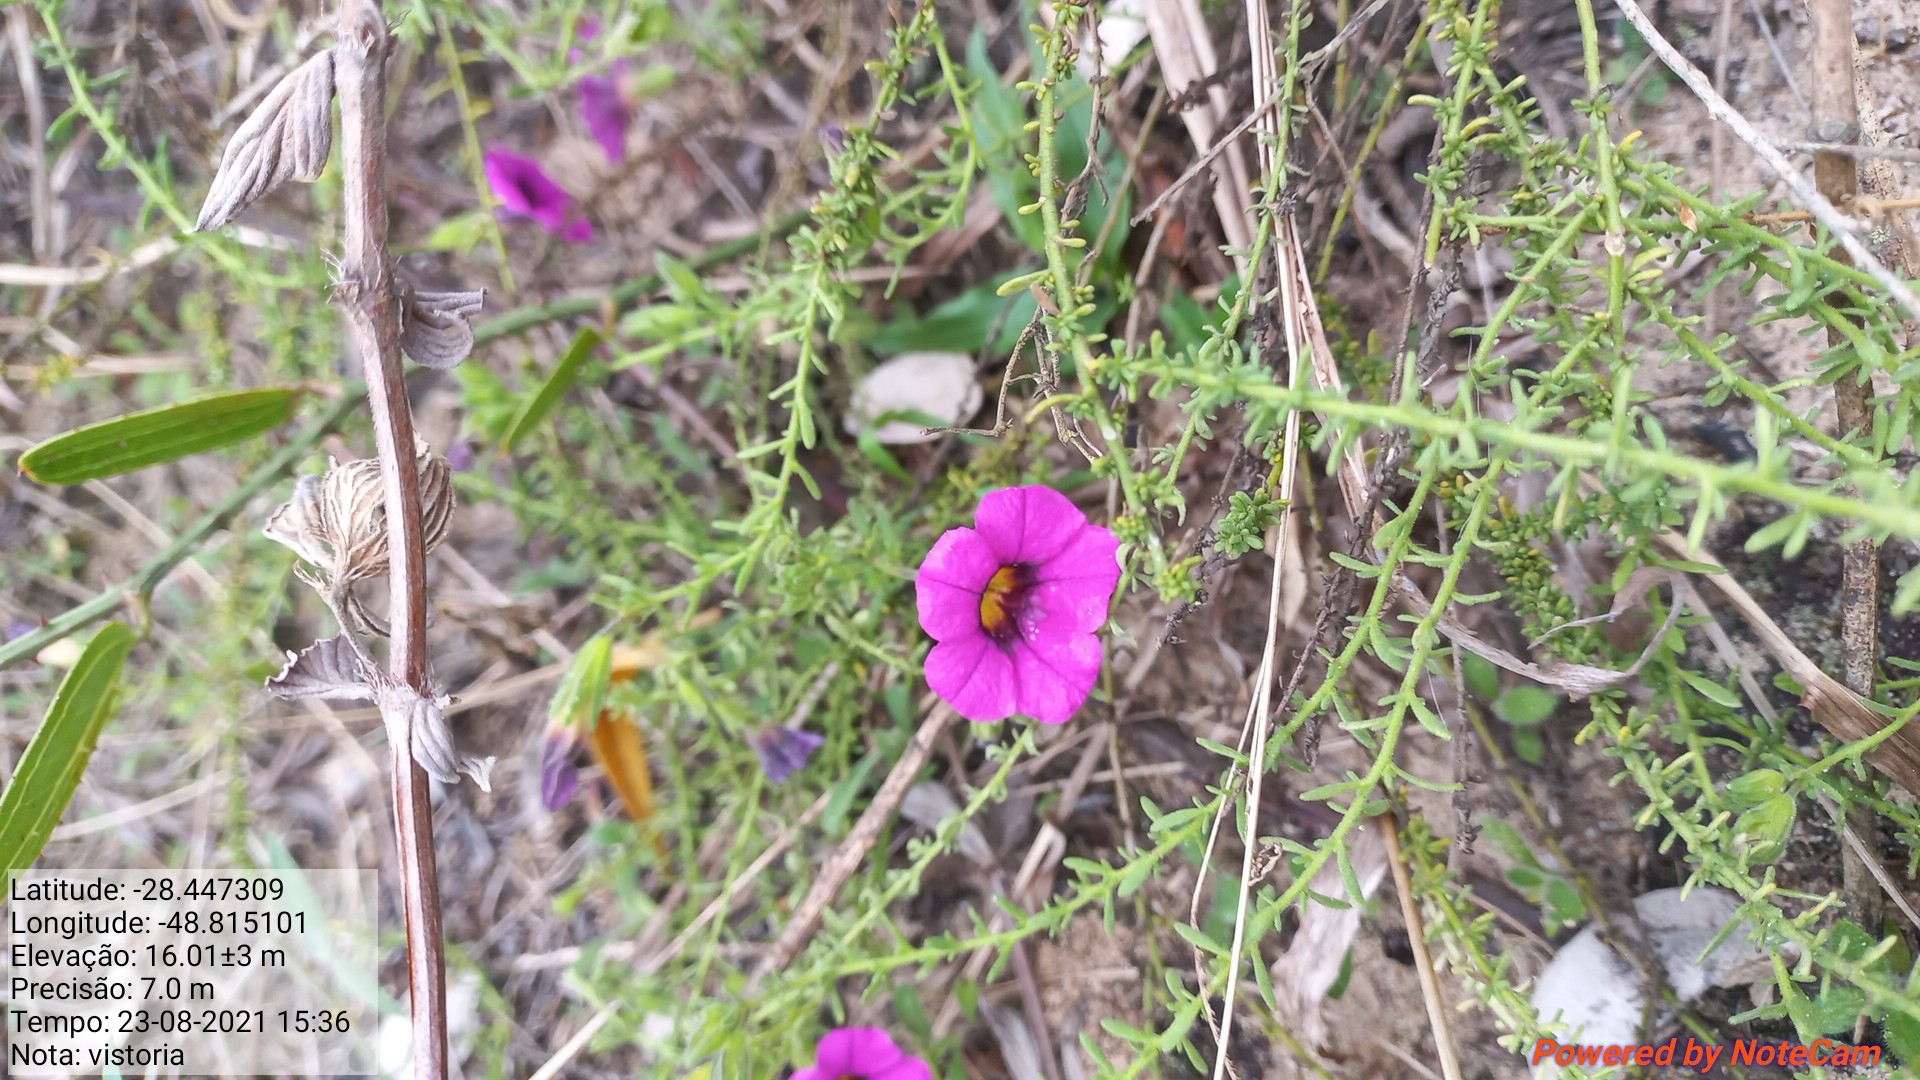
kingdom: Plantae
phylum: Tracheophyta
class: Magnoliopsida
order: Solanales
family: Solanaceae
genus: Calibrachoa
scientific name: Calibrachoa heterophylla
